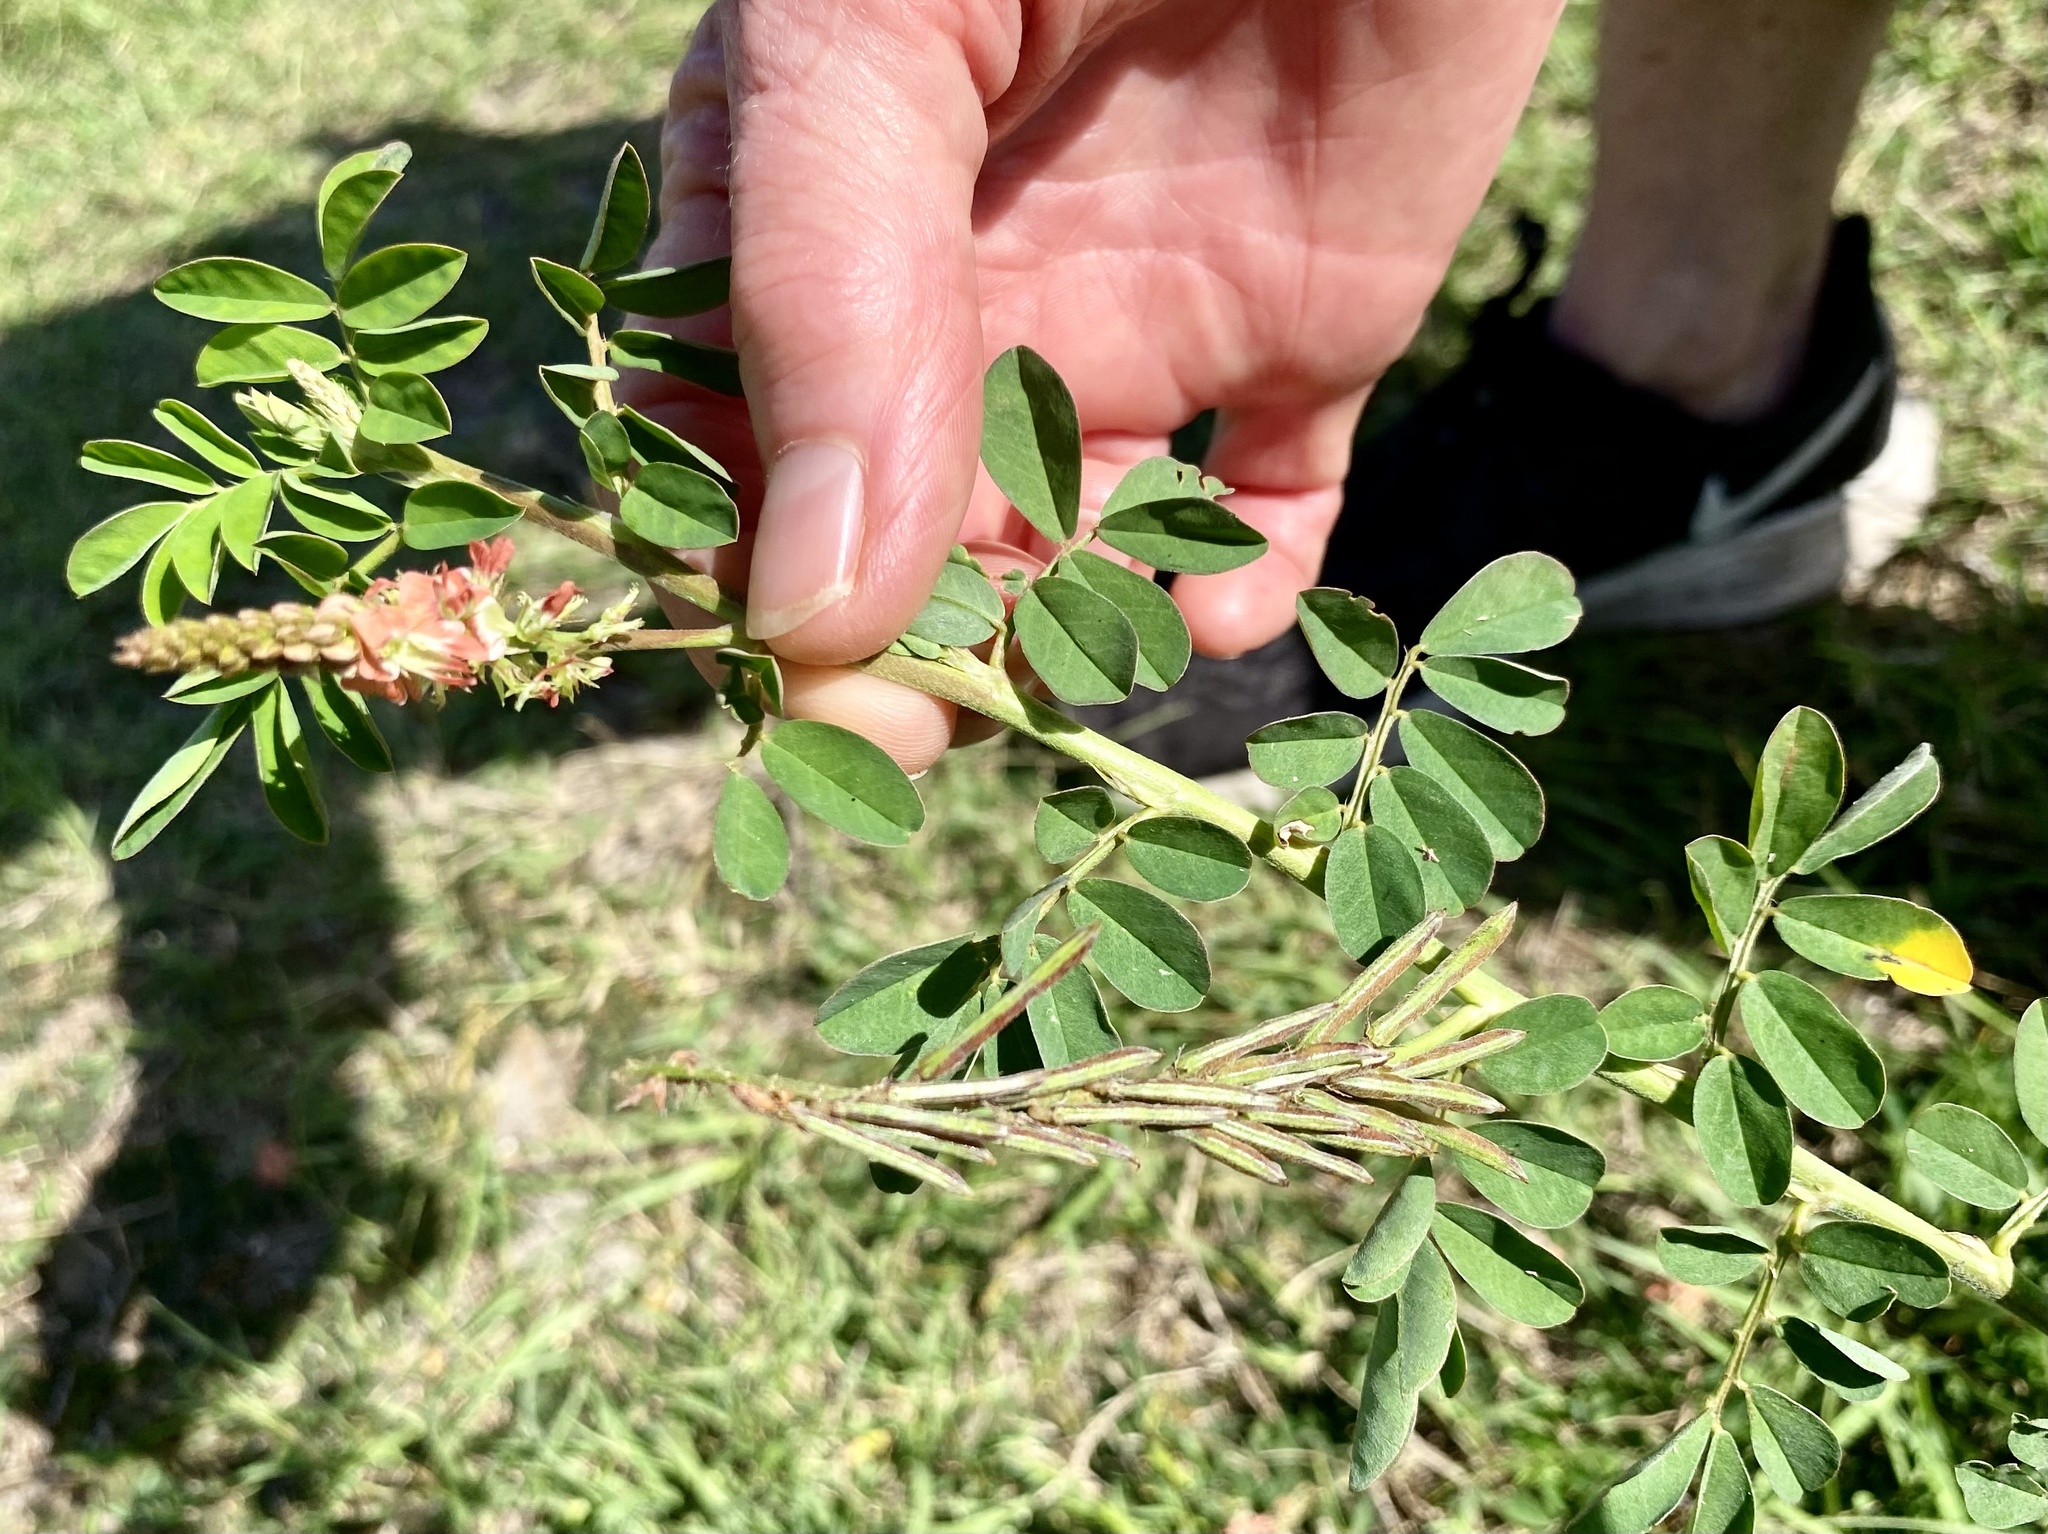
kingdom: Plantae
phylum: Tracheophyta
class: Magnoliopsida
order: Fabales
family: Fabaceae
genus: Indigofera
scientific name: Indigofera spicata
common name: Creeping indigo
